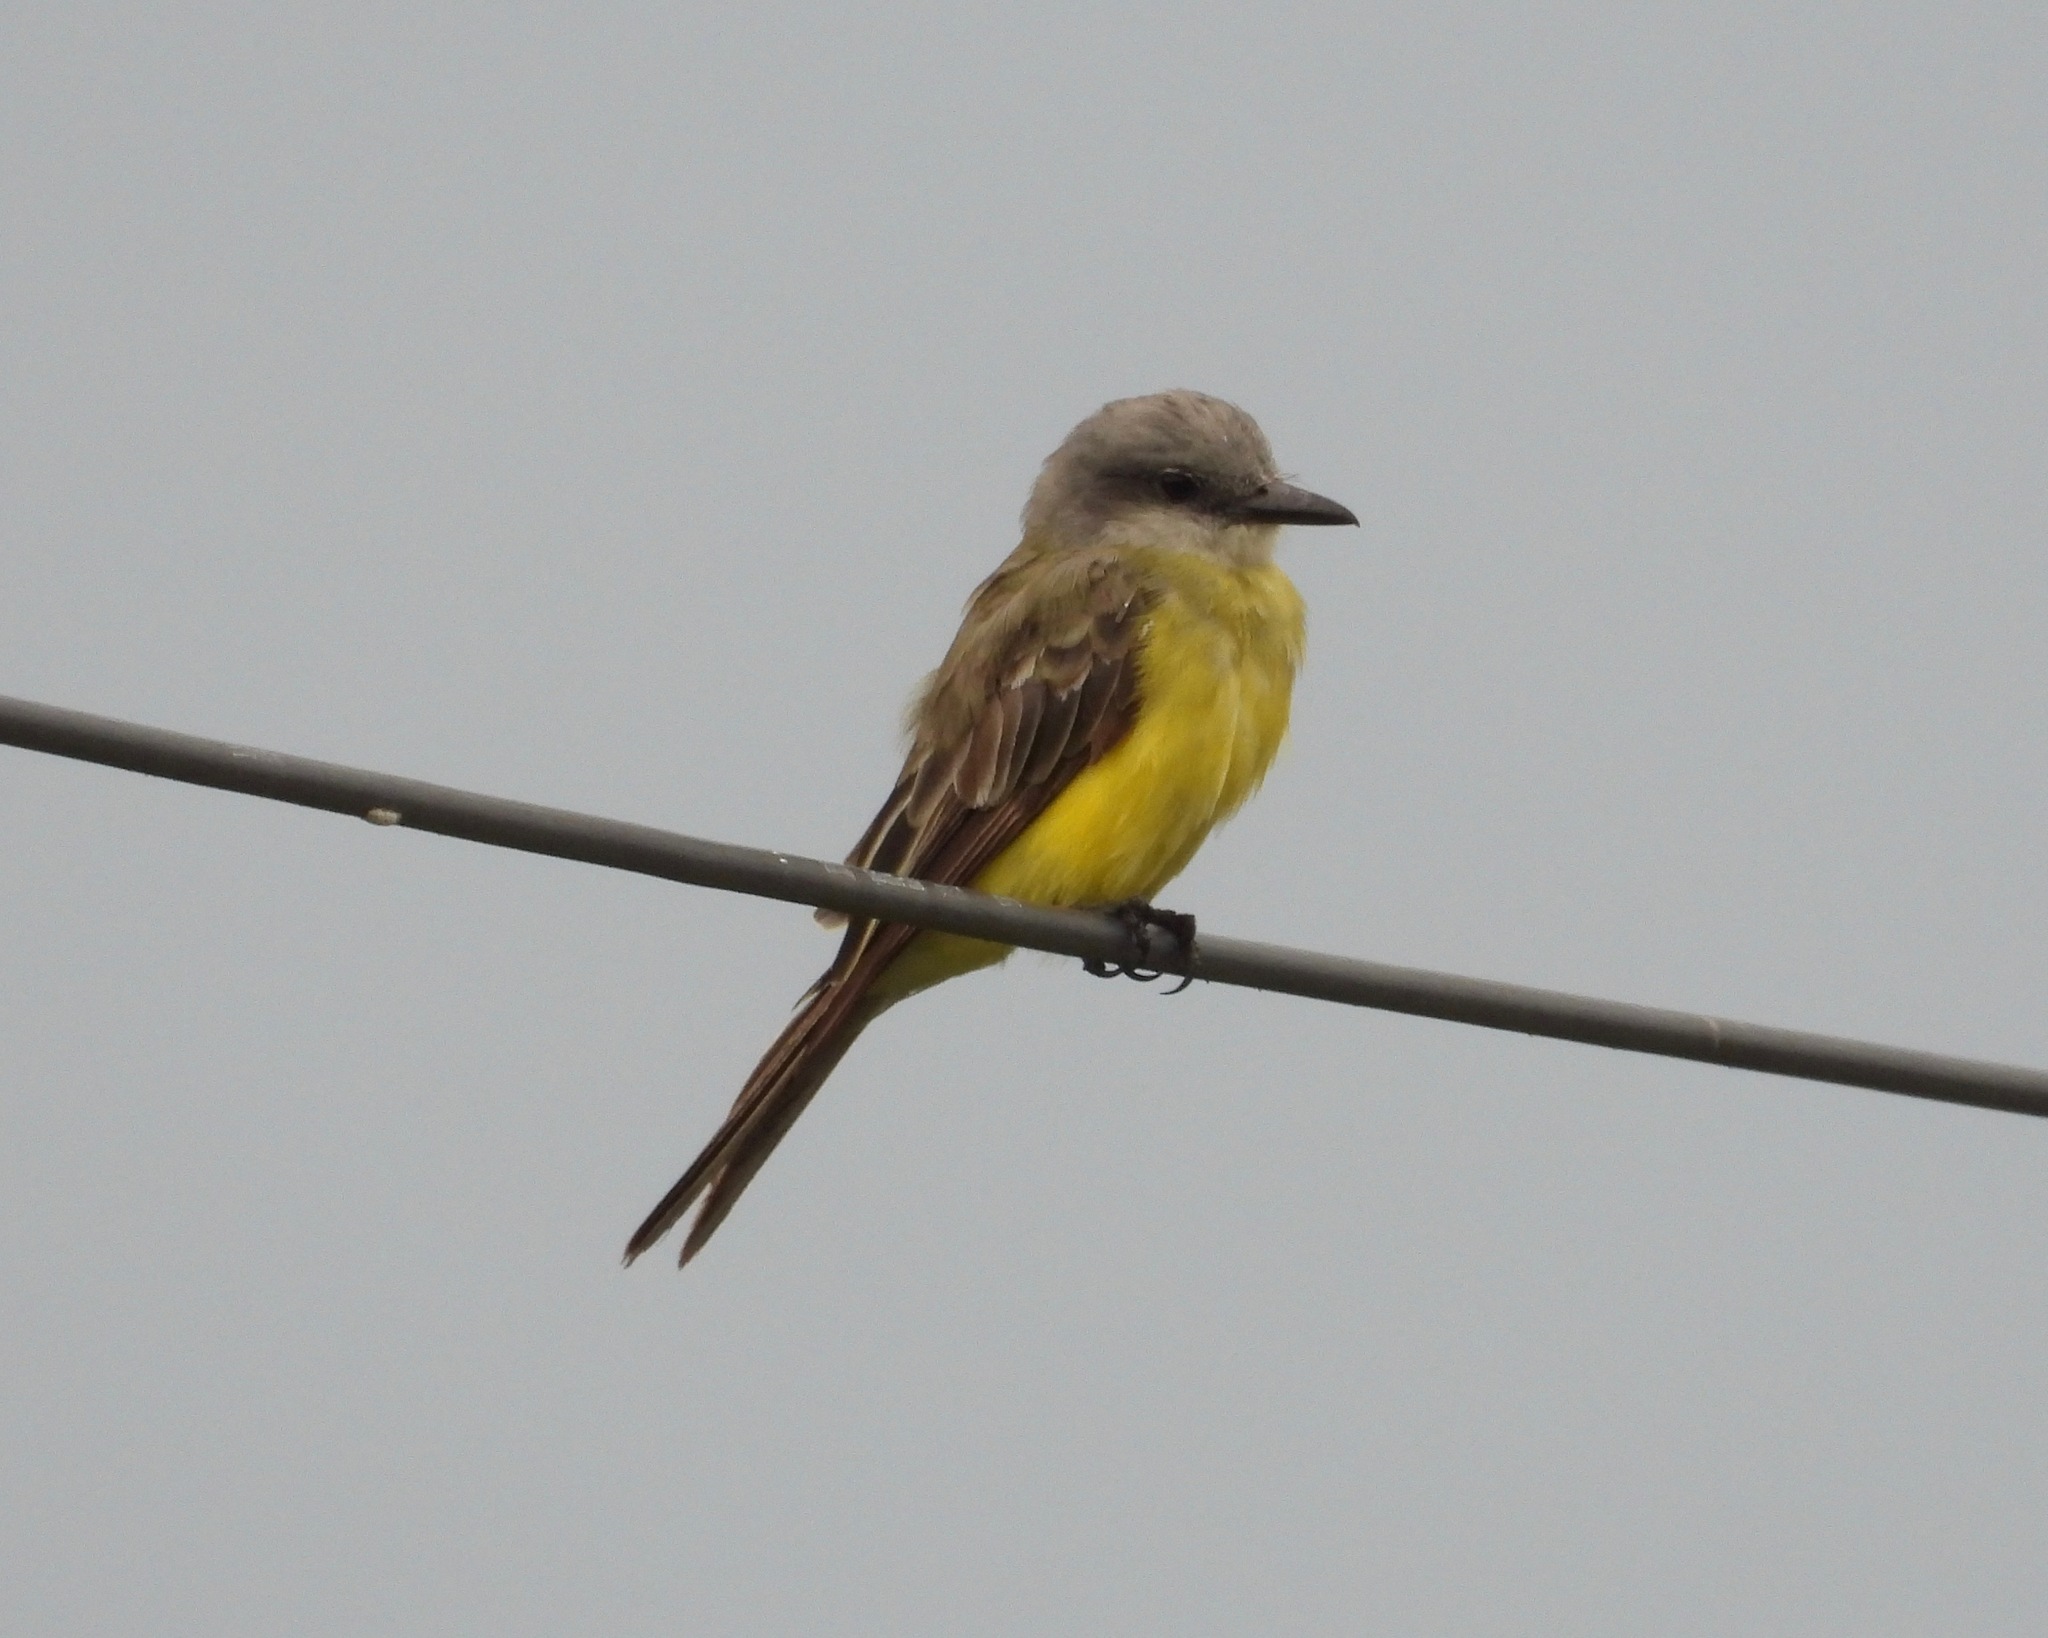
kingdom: Animalia
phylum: Chordata
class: Aves
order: Passeriformes
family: Tyrannidae
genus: Tyrannus
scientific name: Tyrannus melancholicus
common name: Tropical kingbird
